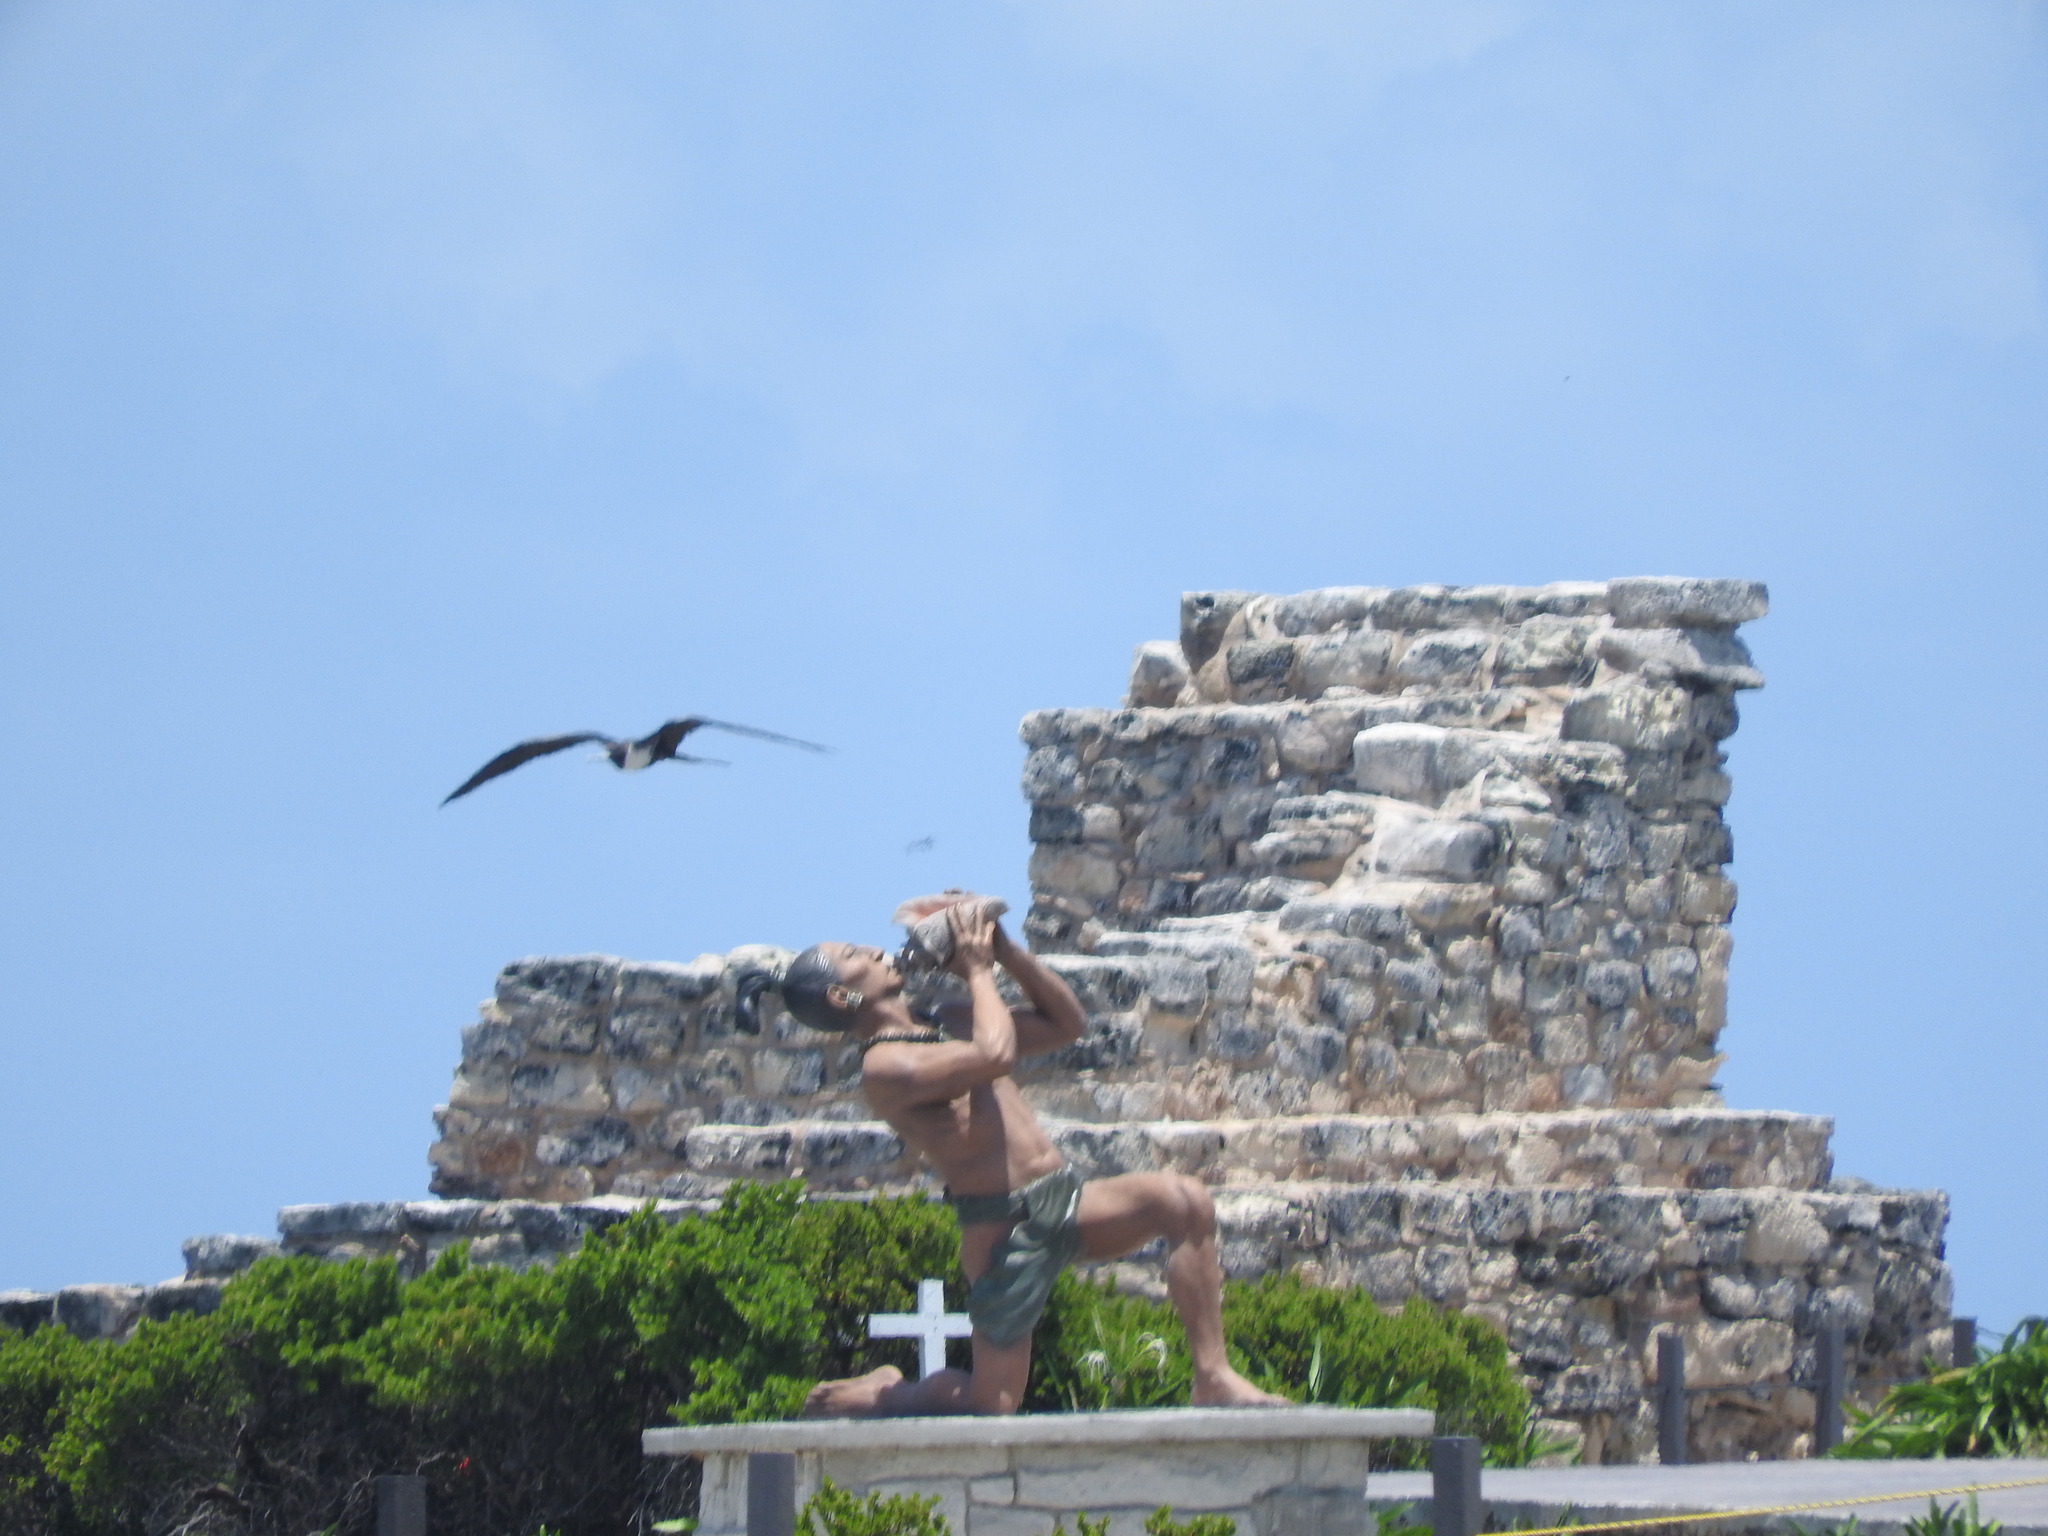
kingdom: Animalia
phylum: Chordata
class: Aves
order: Suliformes
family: Fregatidae
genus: Fregata
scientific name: Fregata magnificens
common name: Magnificent frigatebird
